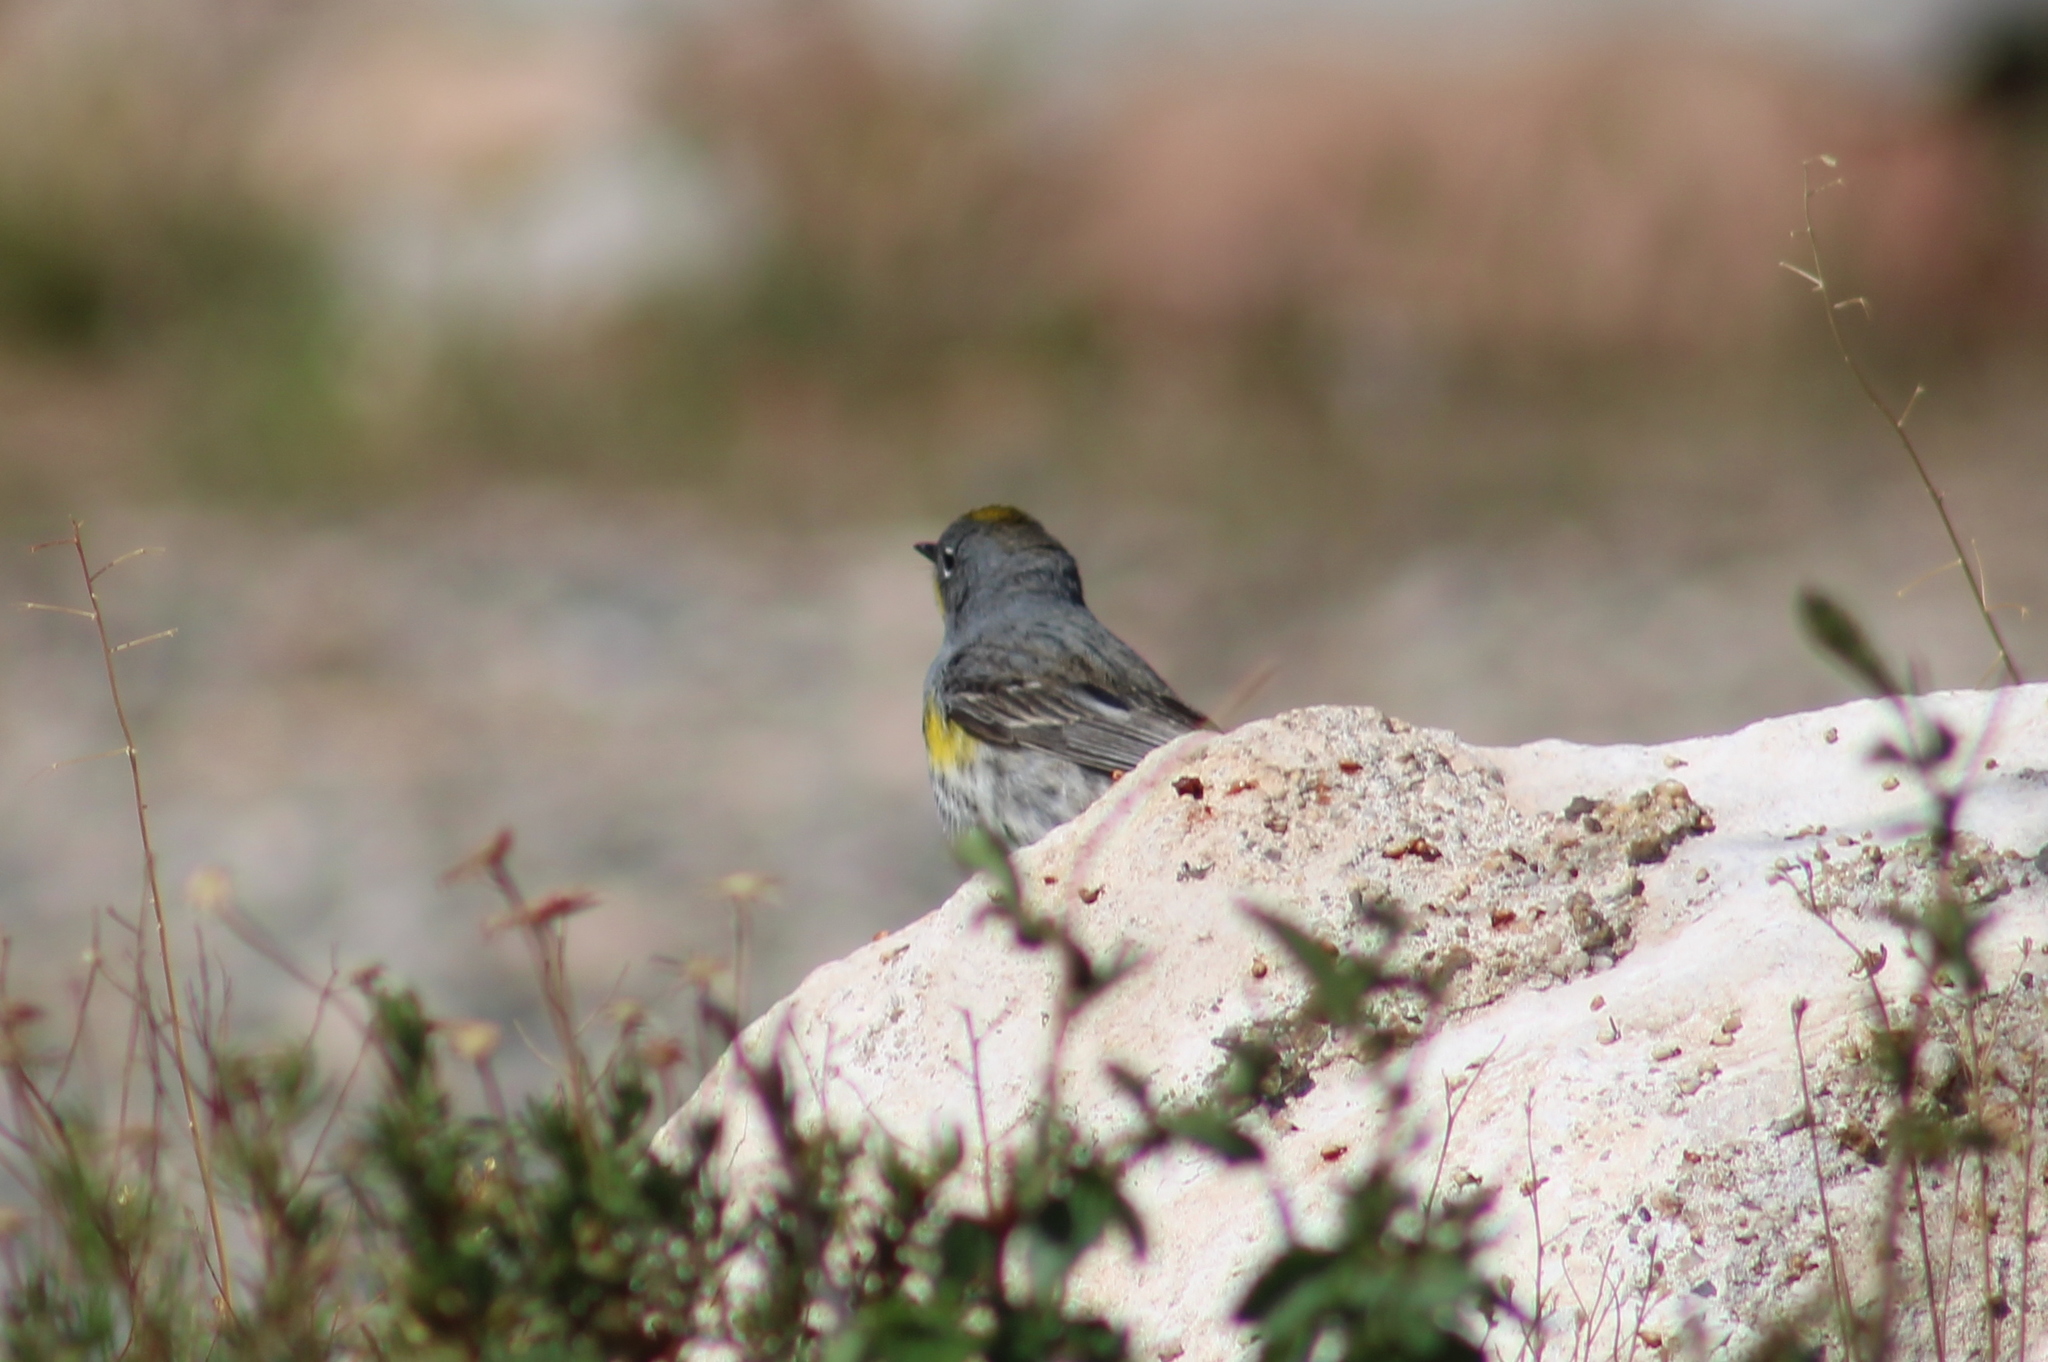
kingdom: Animalia
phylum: Chordata
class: Aves
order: Passeriformes
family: Parulidae
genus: Setophaga
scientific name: Setophaga coronata
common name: Myrtle warbler
